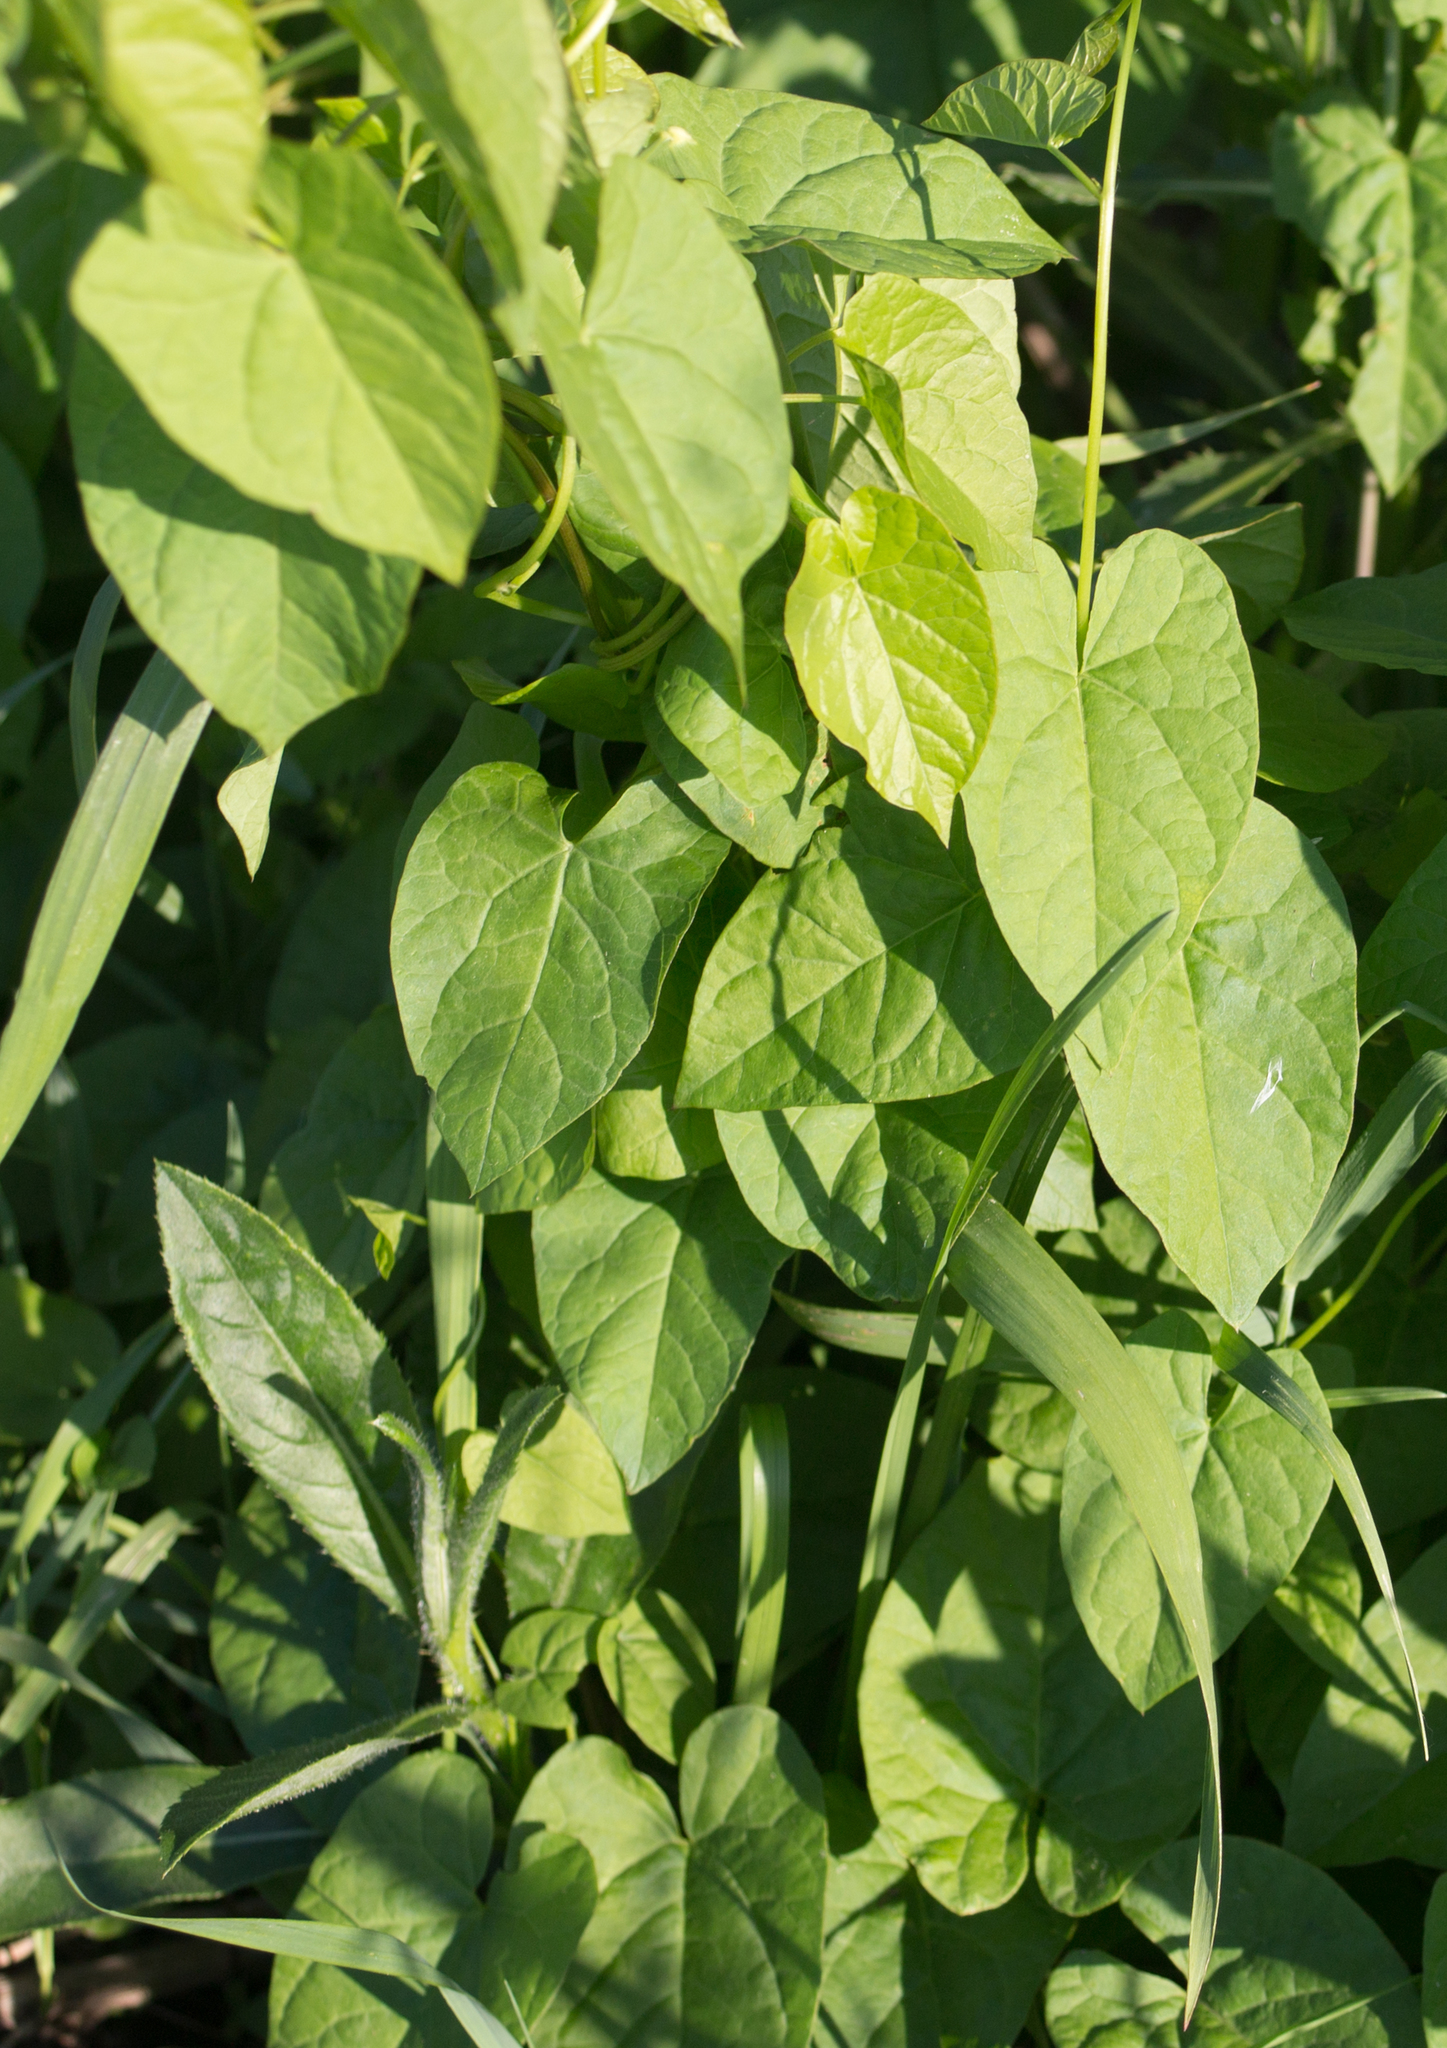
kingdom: Plantae
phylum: Tracheophyta
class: Magnoliopsida
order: Solanales
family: Convolvulaceae
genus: Calystegia
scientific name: Calystegia
